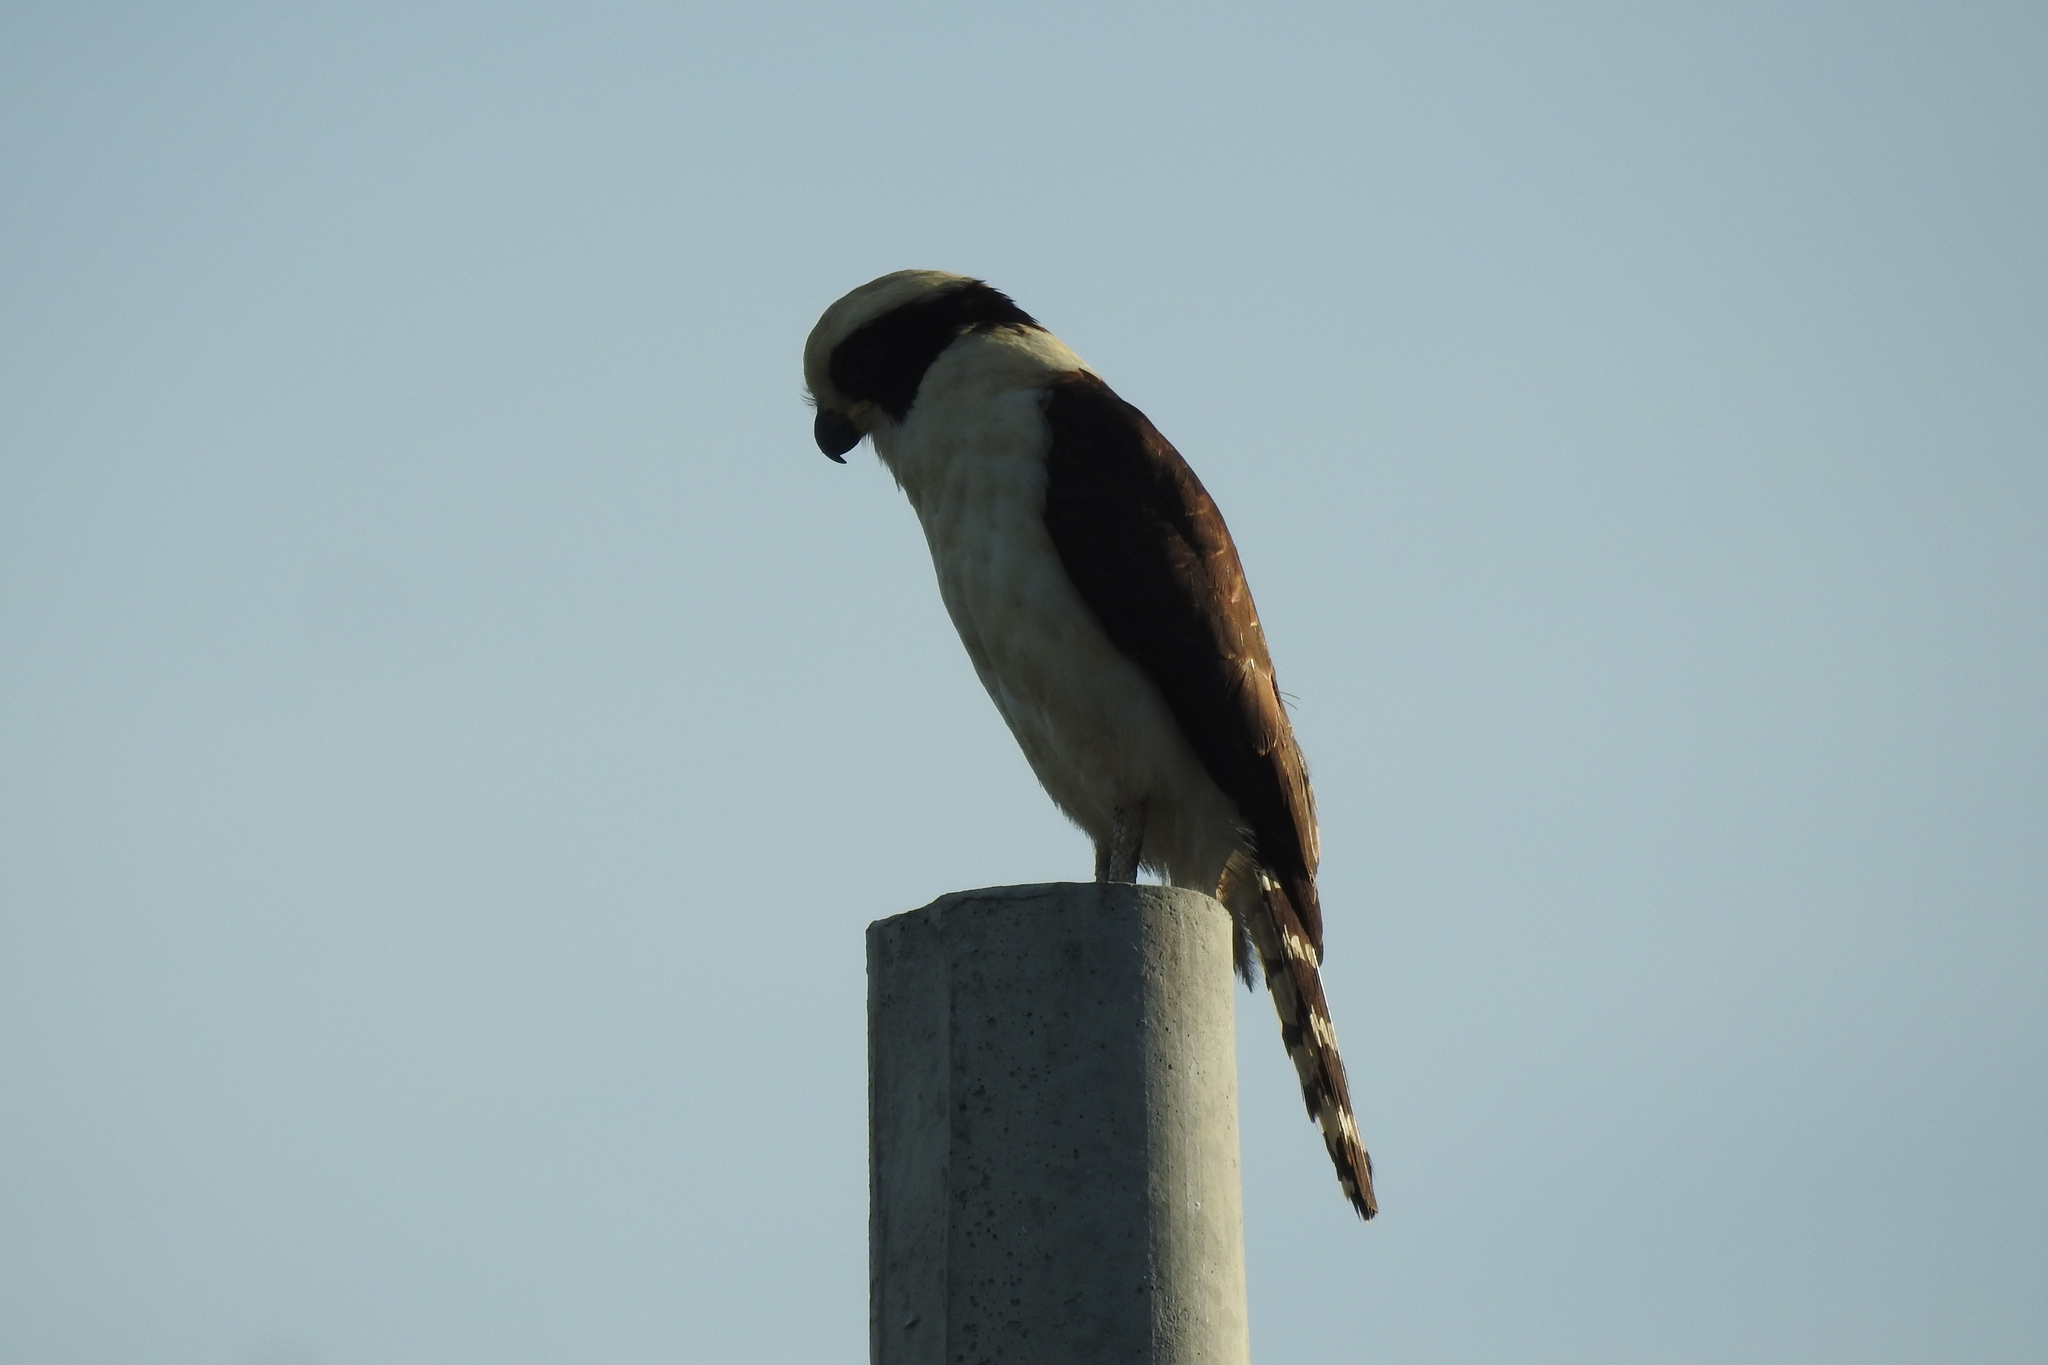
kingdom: Animalia
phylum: Chordata
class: Aves
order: Falconiformes
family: Falconidae
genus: Herpetotheres
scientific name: Herpetotheres cachinnans
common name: Laughing falcon
